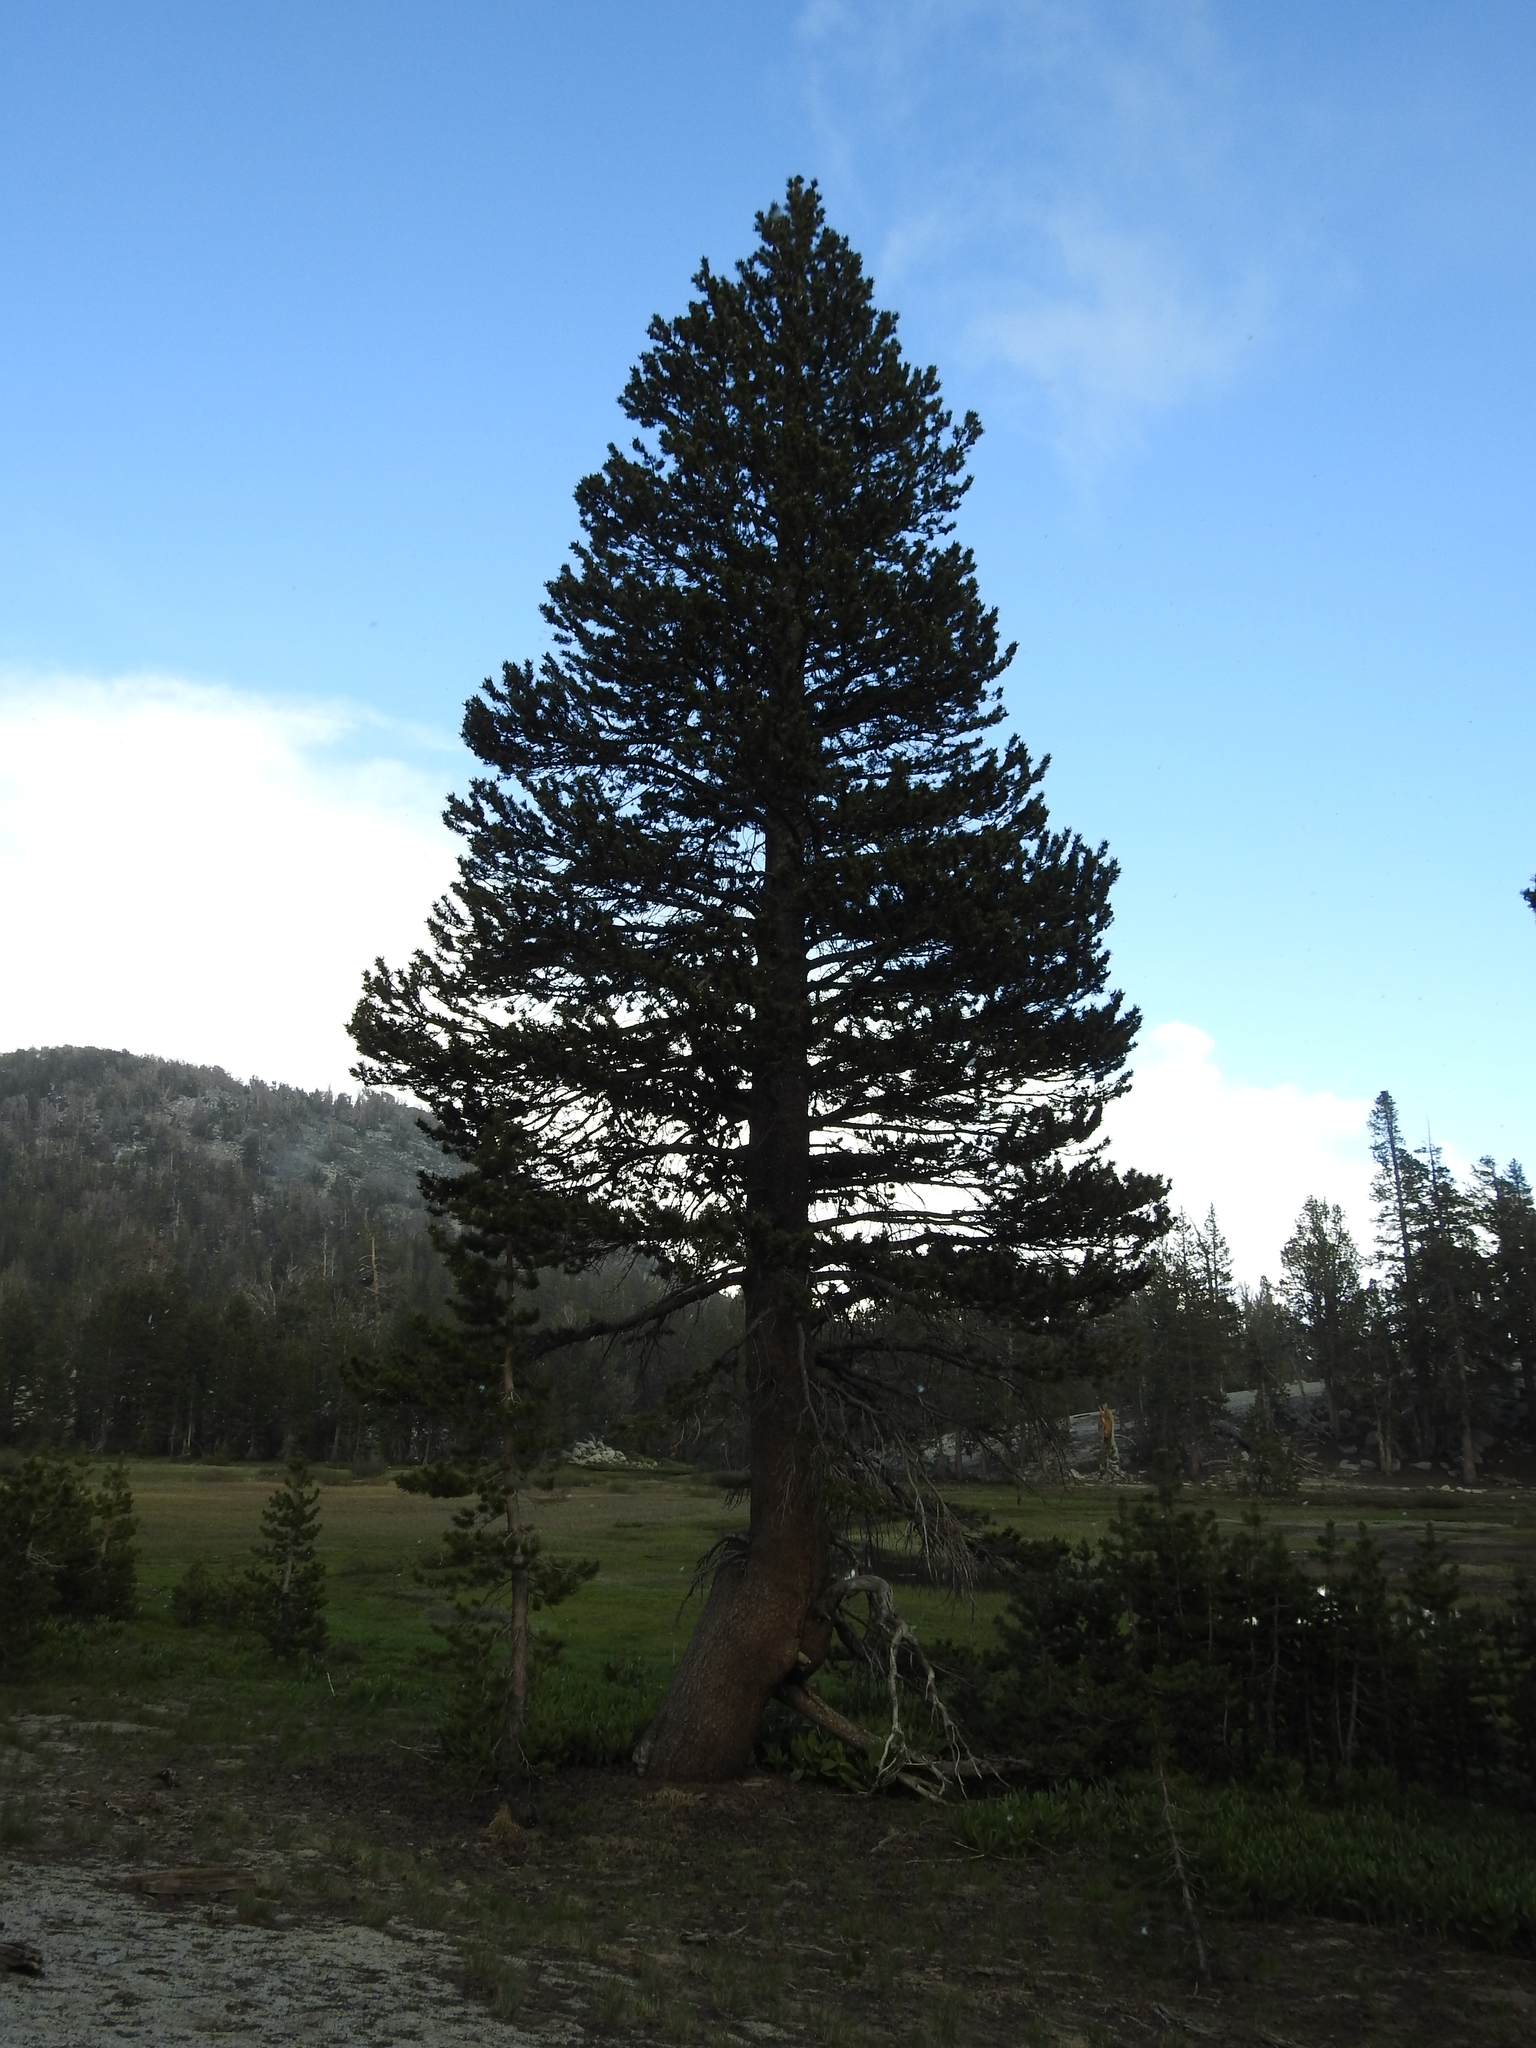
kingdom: Plantae
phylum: Tracheophyta
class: Pinopsida
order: Pinales
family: Pinaceae
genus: Pinus
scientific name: Pinus contorta
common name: Lodgepole pine
